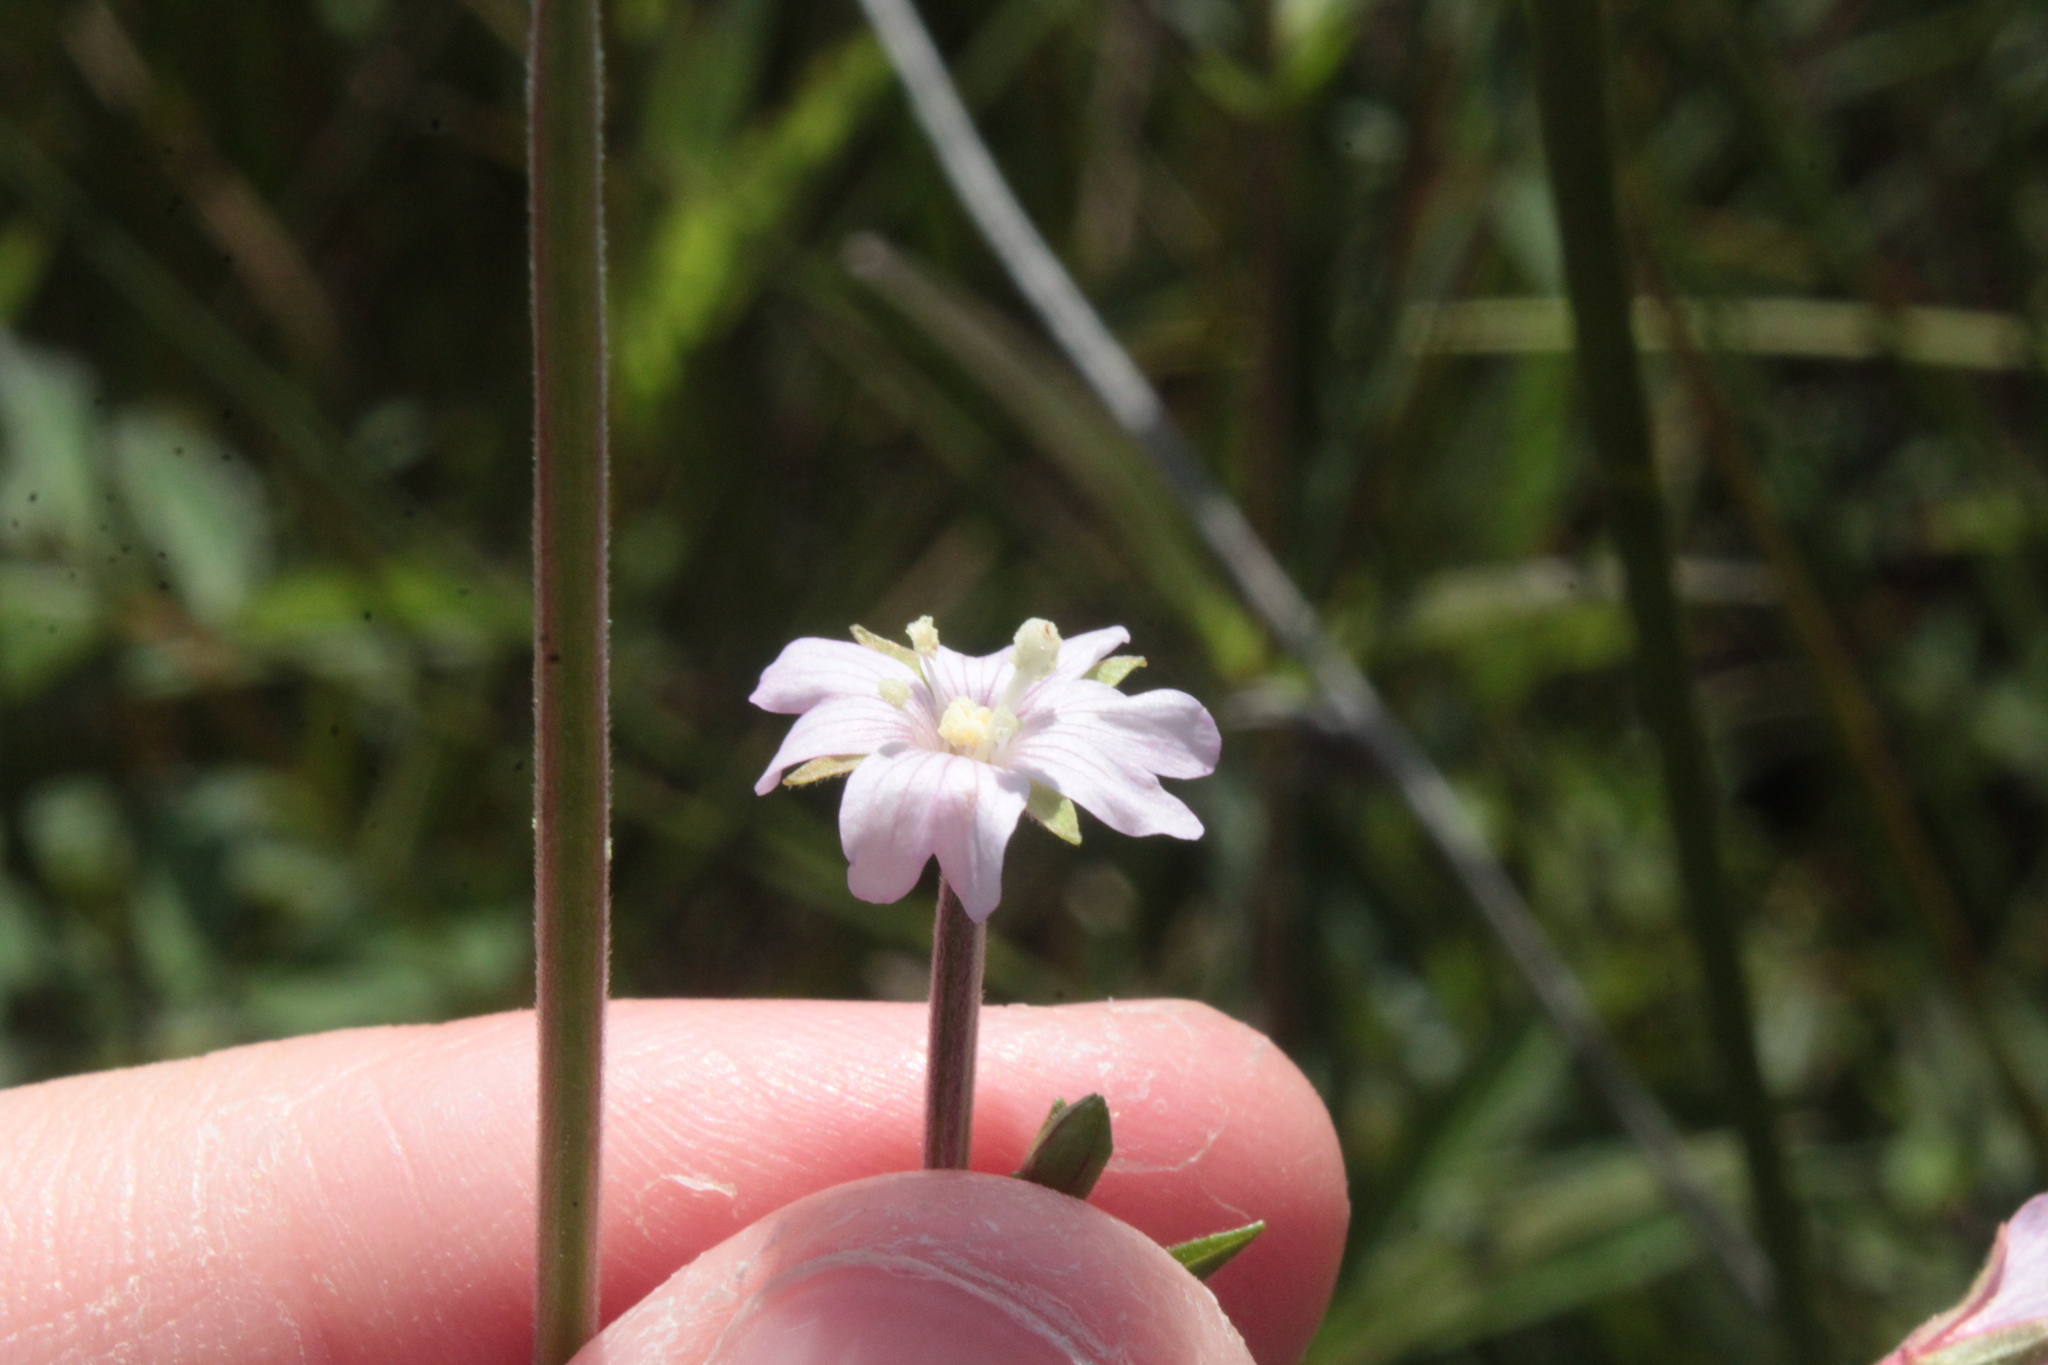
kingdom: Plantae
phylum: Tracheophyta
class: Magnoliopsida
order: Myrtales
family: Onagraceae
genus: Epilobium
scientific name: Epilobium palustre
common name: Marsh willowherb
